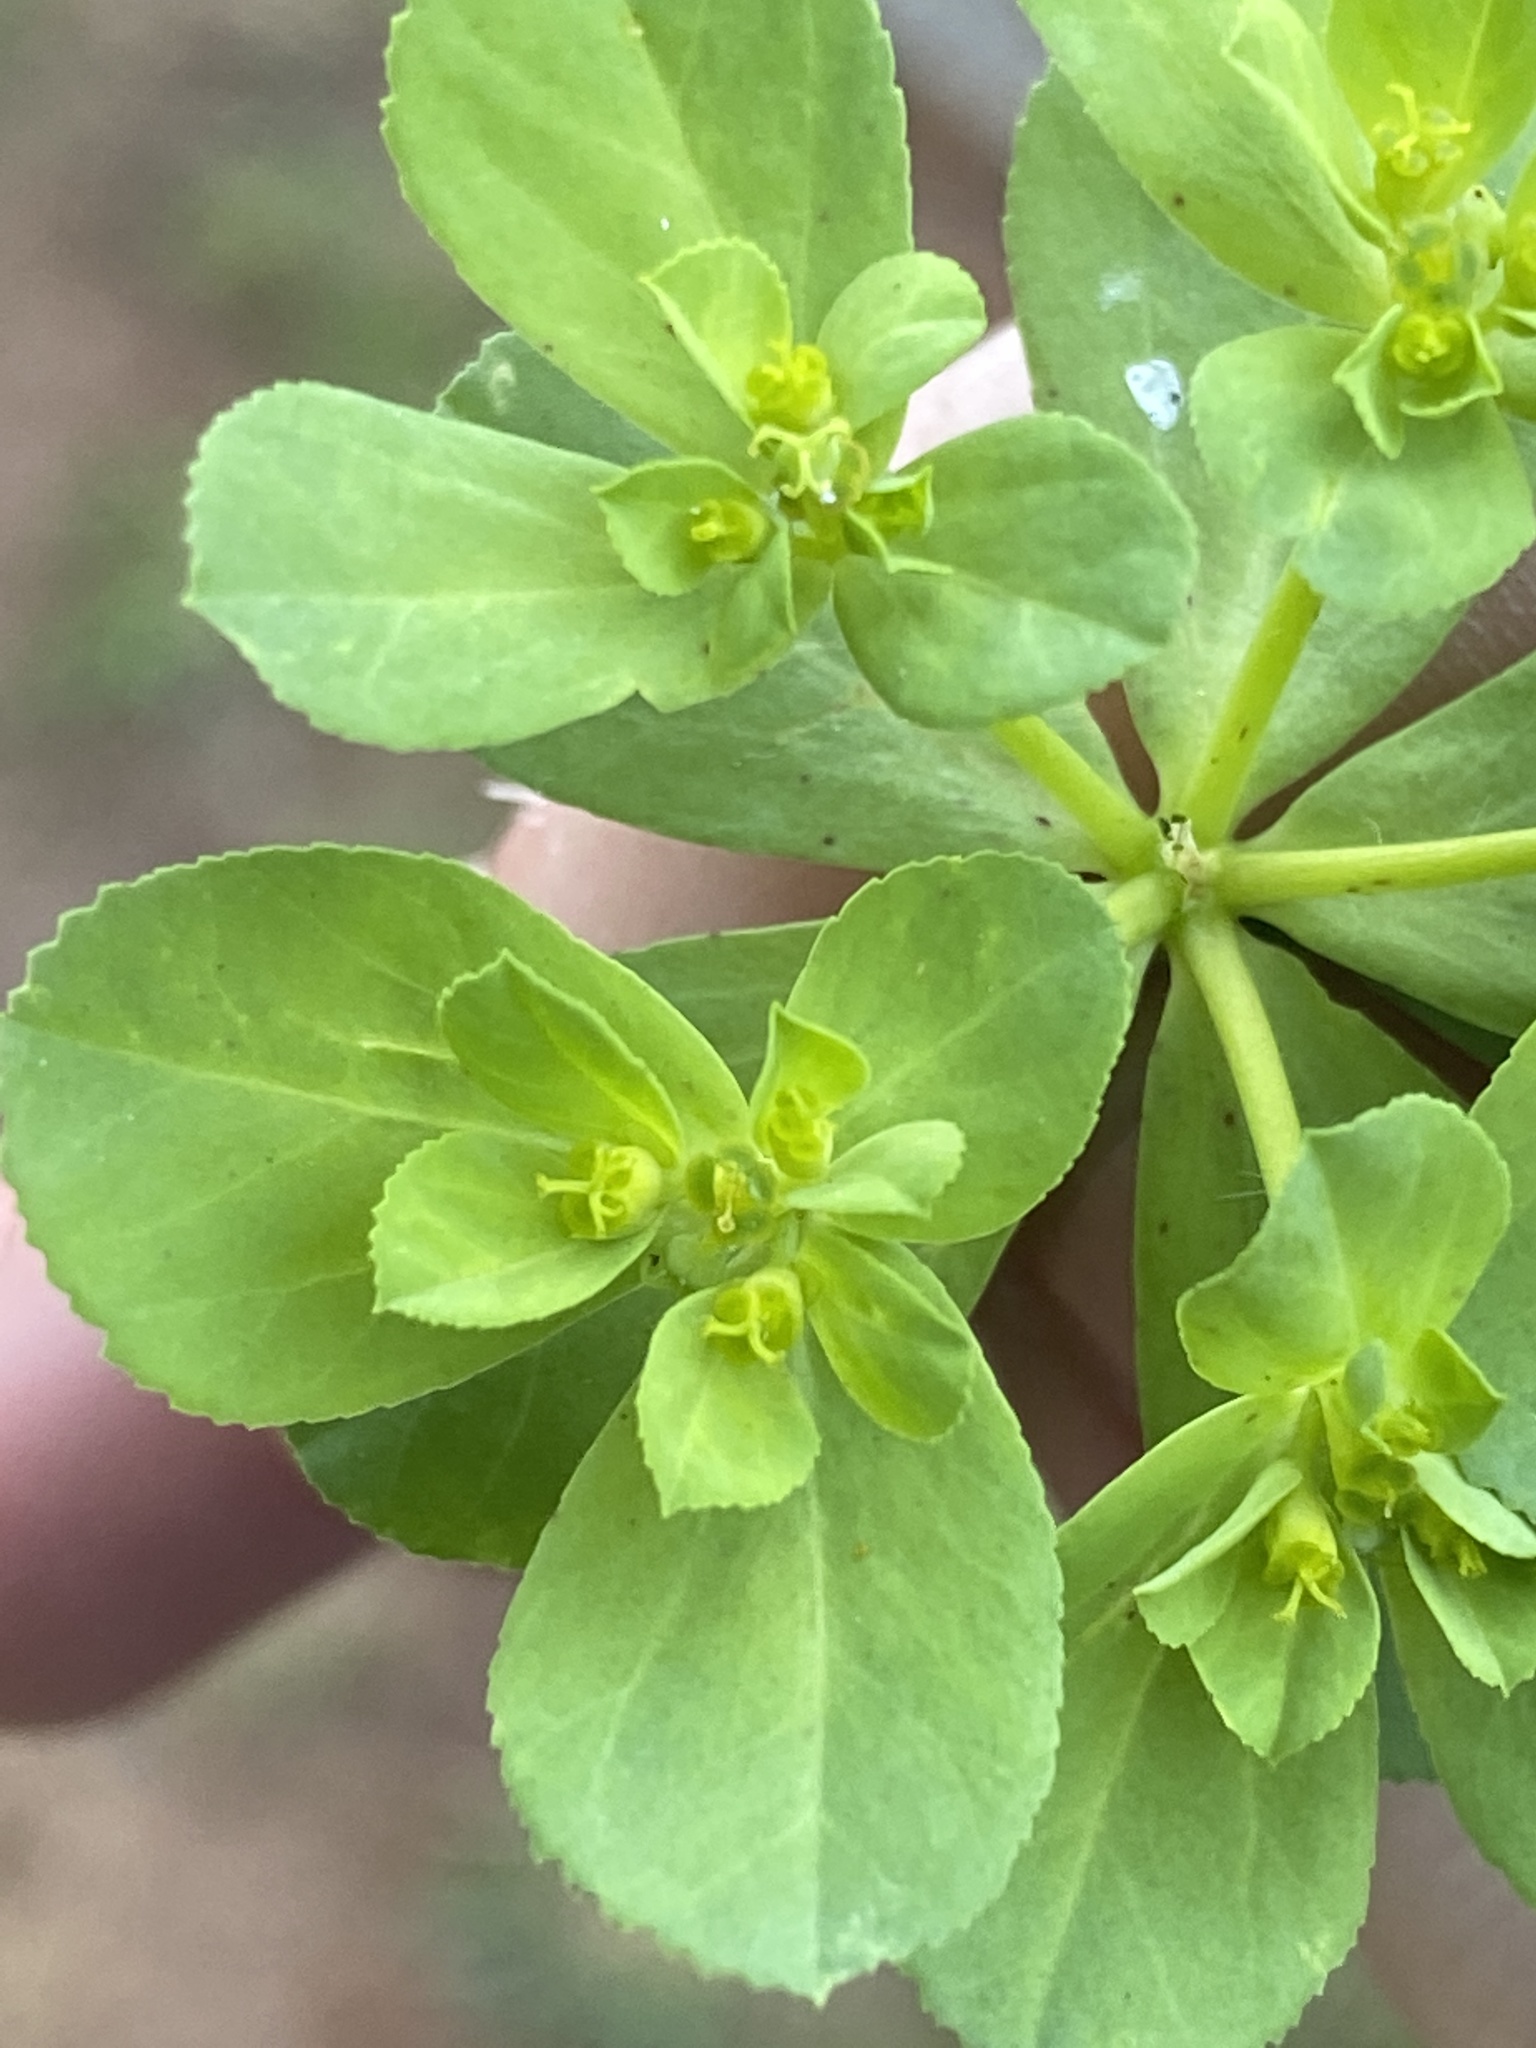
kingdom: Plantae
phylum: Tracheophyta
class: Magnoliopsida
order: Malpighiales
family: Euphorbiaceae
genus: Euphorbia
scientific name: Euphorbia helioscopia
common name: Sun spurge
